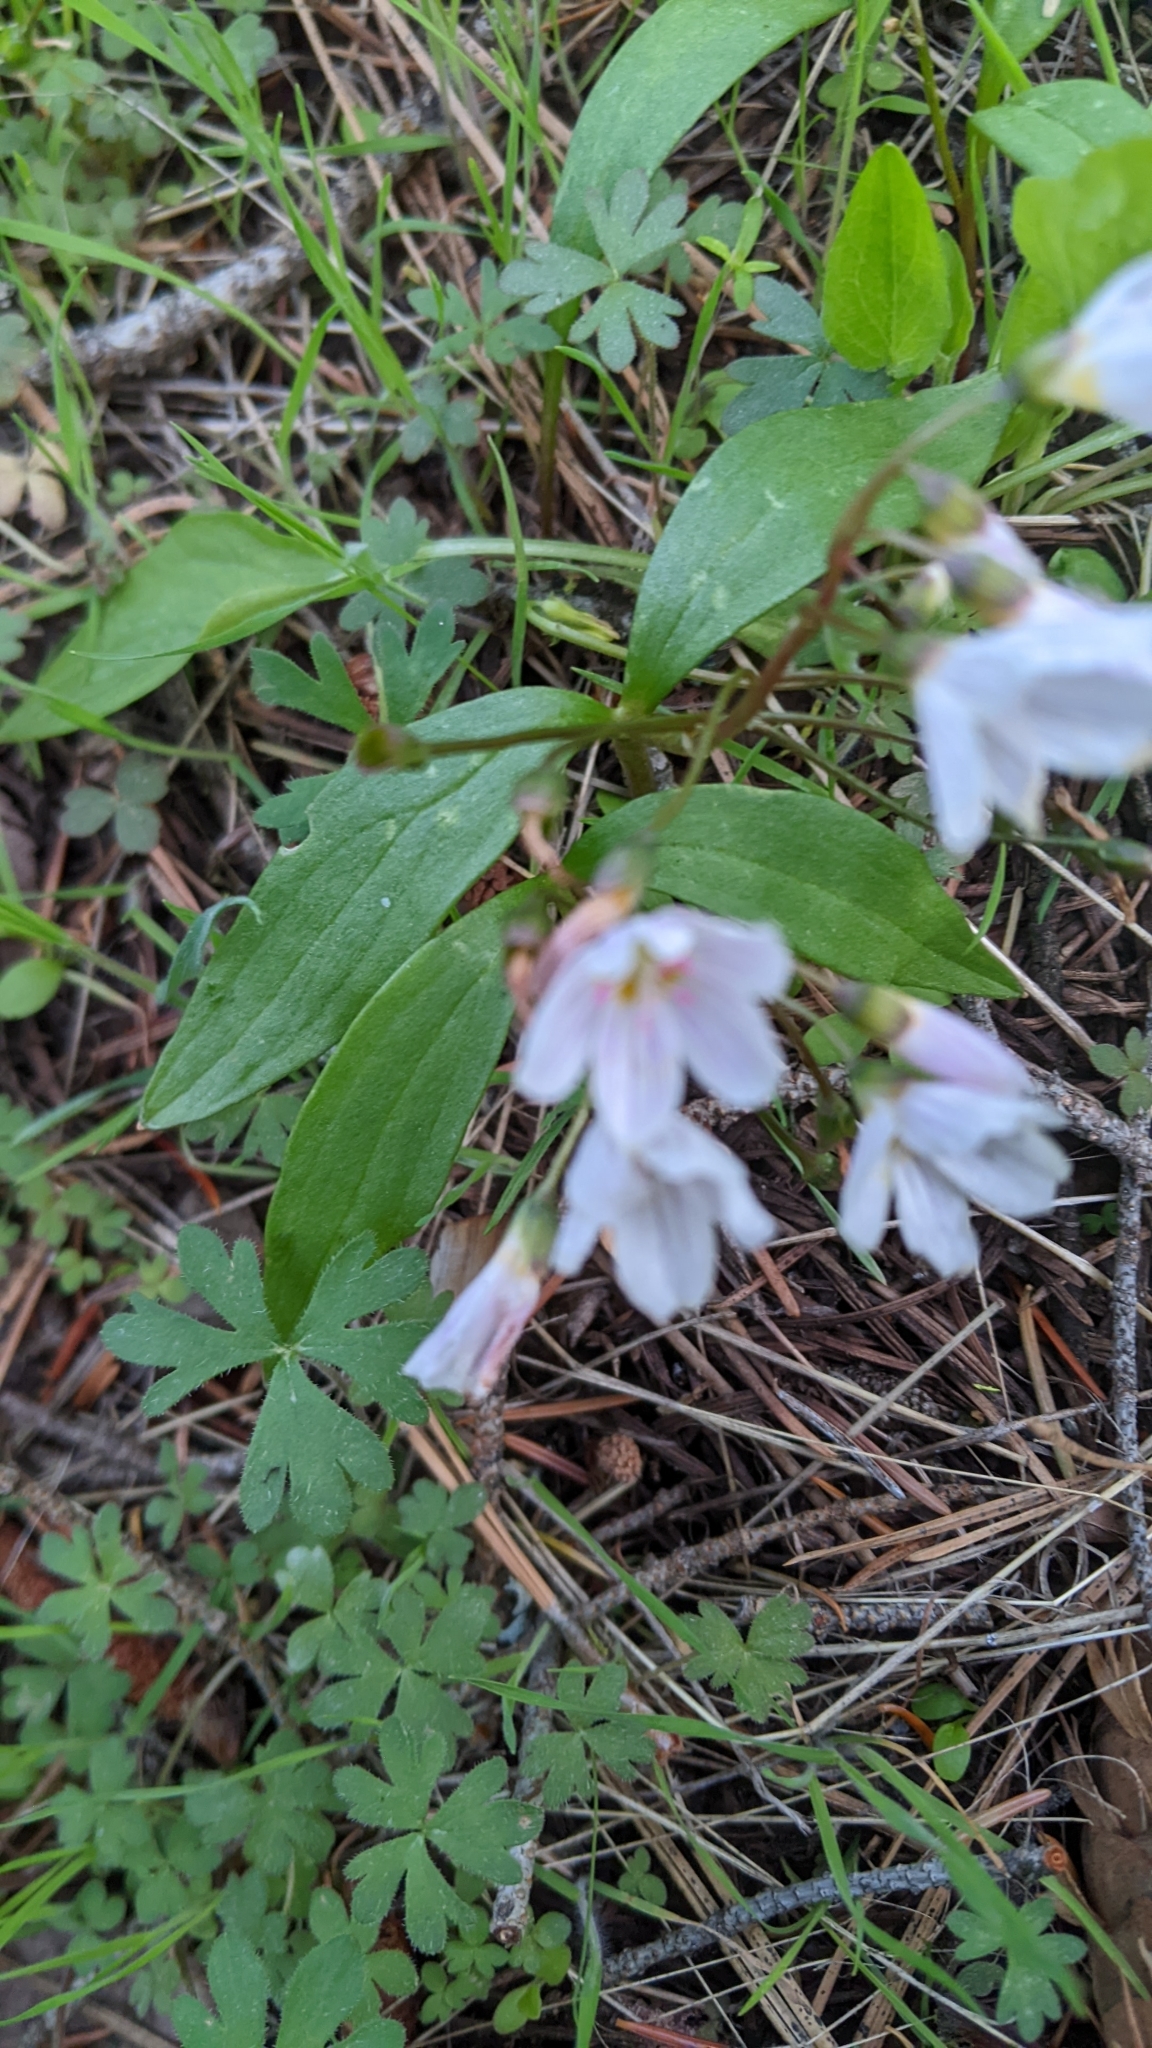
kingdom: Plantae
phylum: Tracheophyta
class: Magnoliopsida
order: Caryophyllales
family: Montiaceae
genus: Claytonia
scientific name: Claytonia lanceolata
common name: Western spring-beauty
